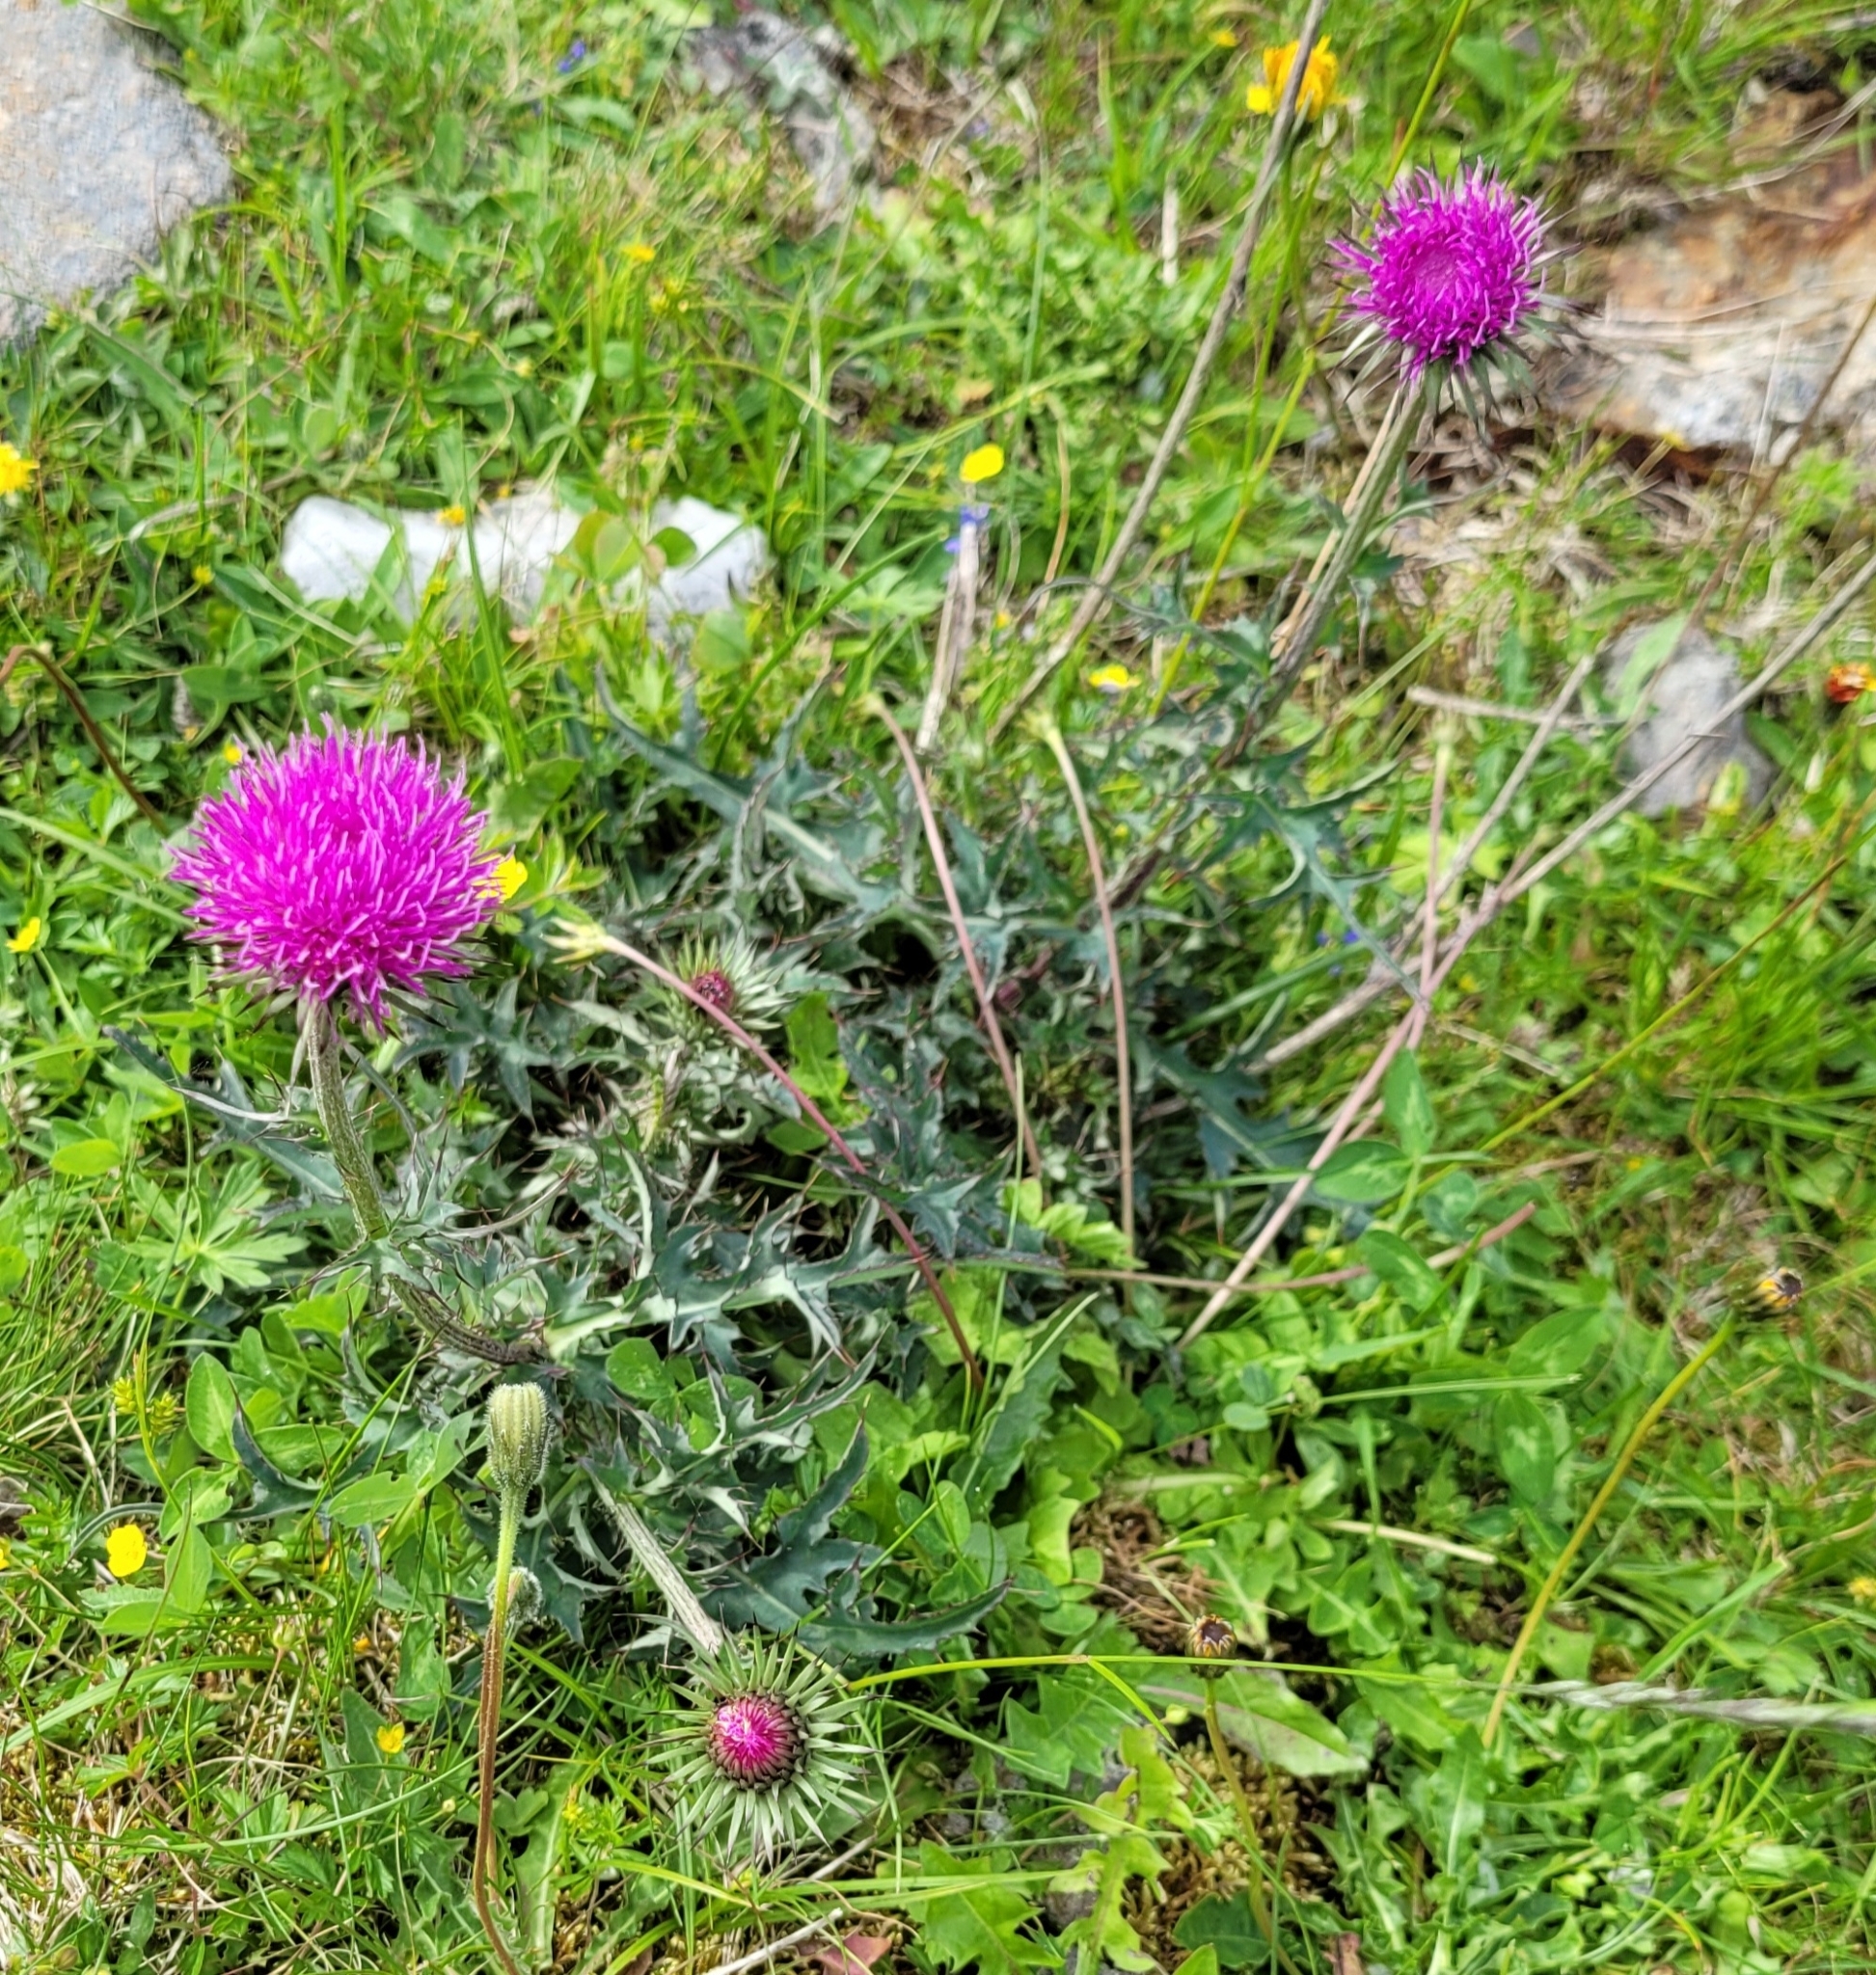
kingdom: Plantae
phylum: Tracheophyta
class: Magnoliopsida
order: Asterales
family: Asteraceae
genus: Carduus
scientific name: Carduus defloratus
